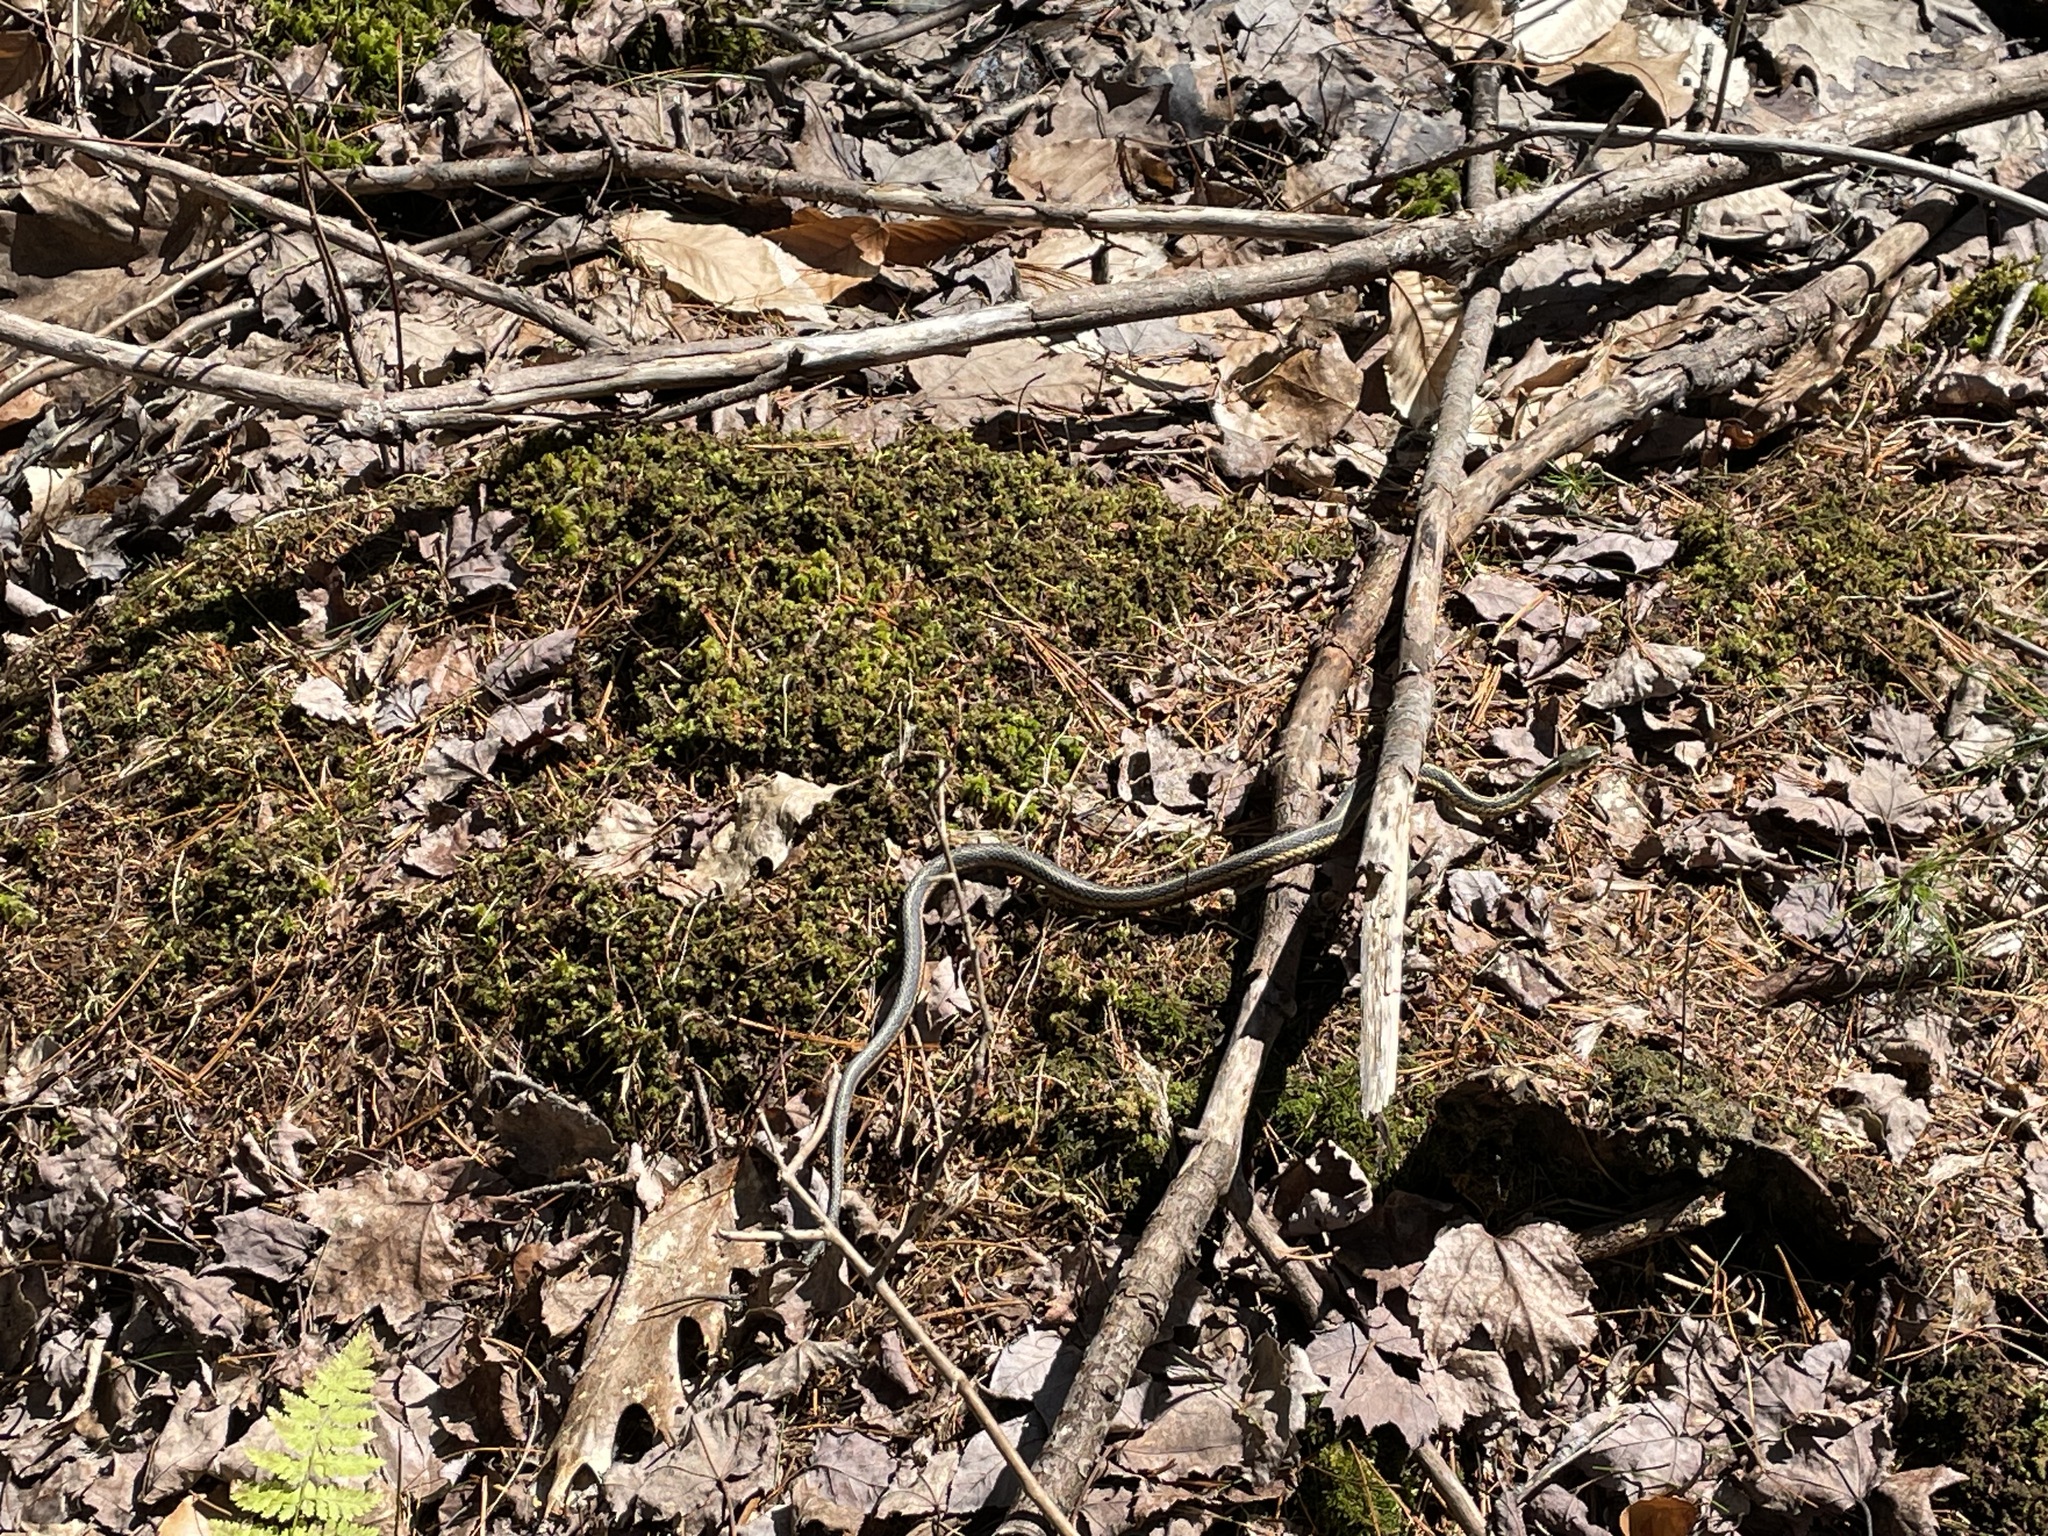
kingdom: Animalia
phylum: Chordata
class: Squamata
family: Colubridae
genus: Thamnophis
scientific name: Thamnophis sirtalis
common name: Common garter snake
